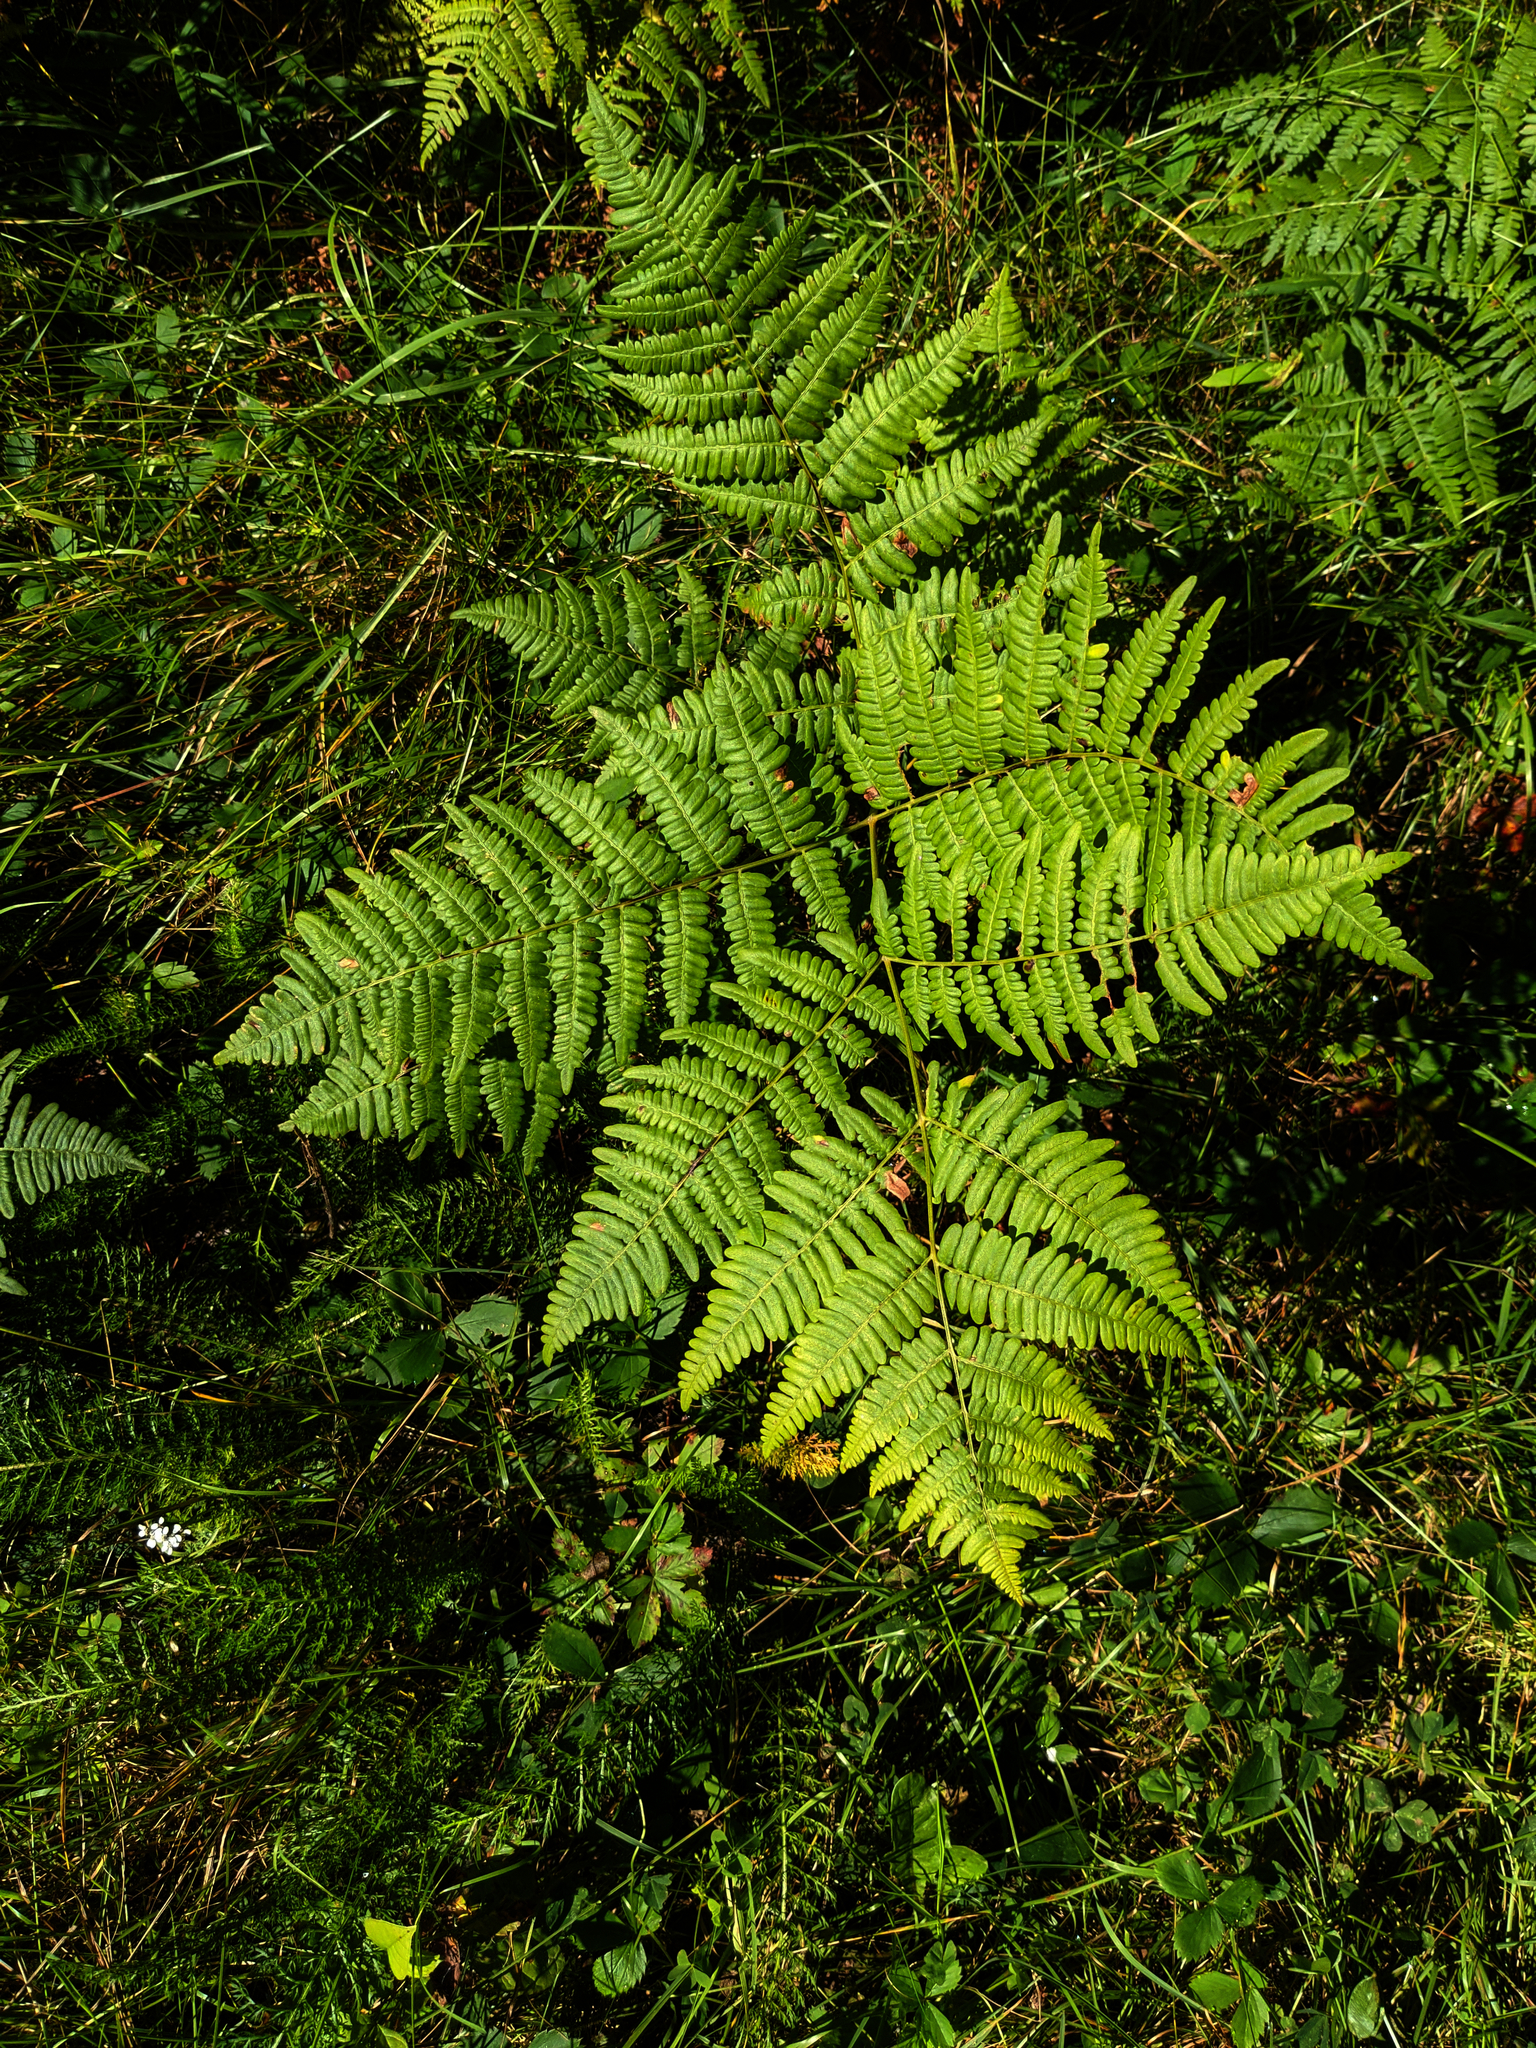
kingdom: Plantae
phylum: Tracheophyta
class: Polypodiopsida
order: Polypodiales
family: Dennstaedtiaceae
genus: Pteridium
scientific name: Pteridium aquilinum
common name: Bracken
